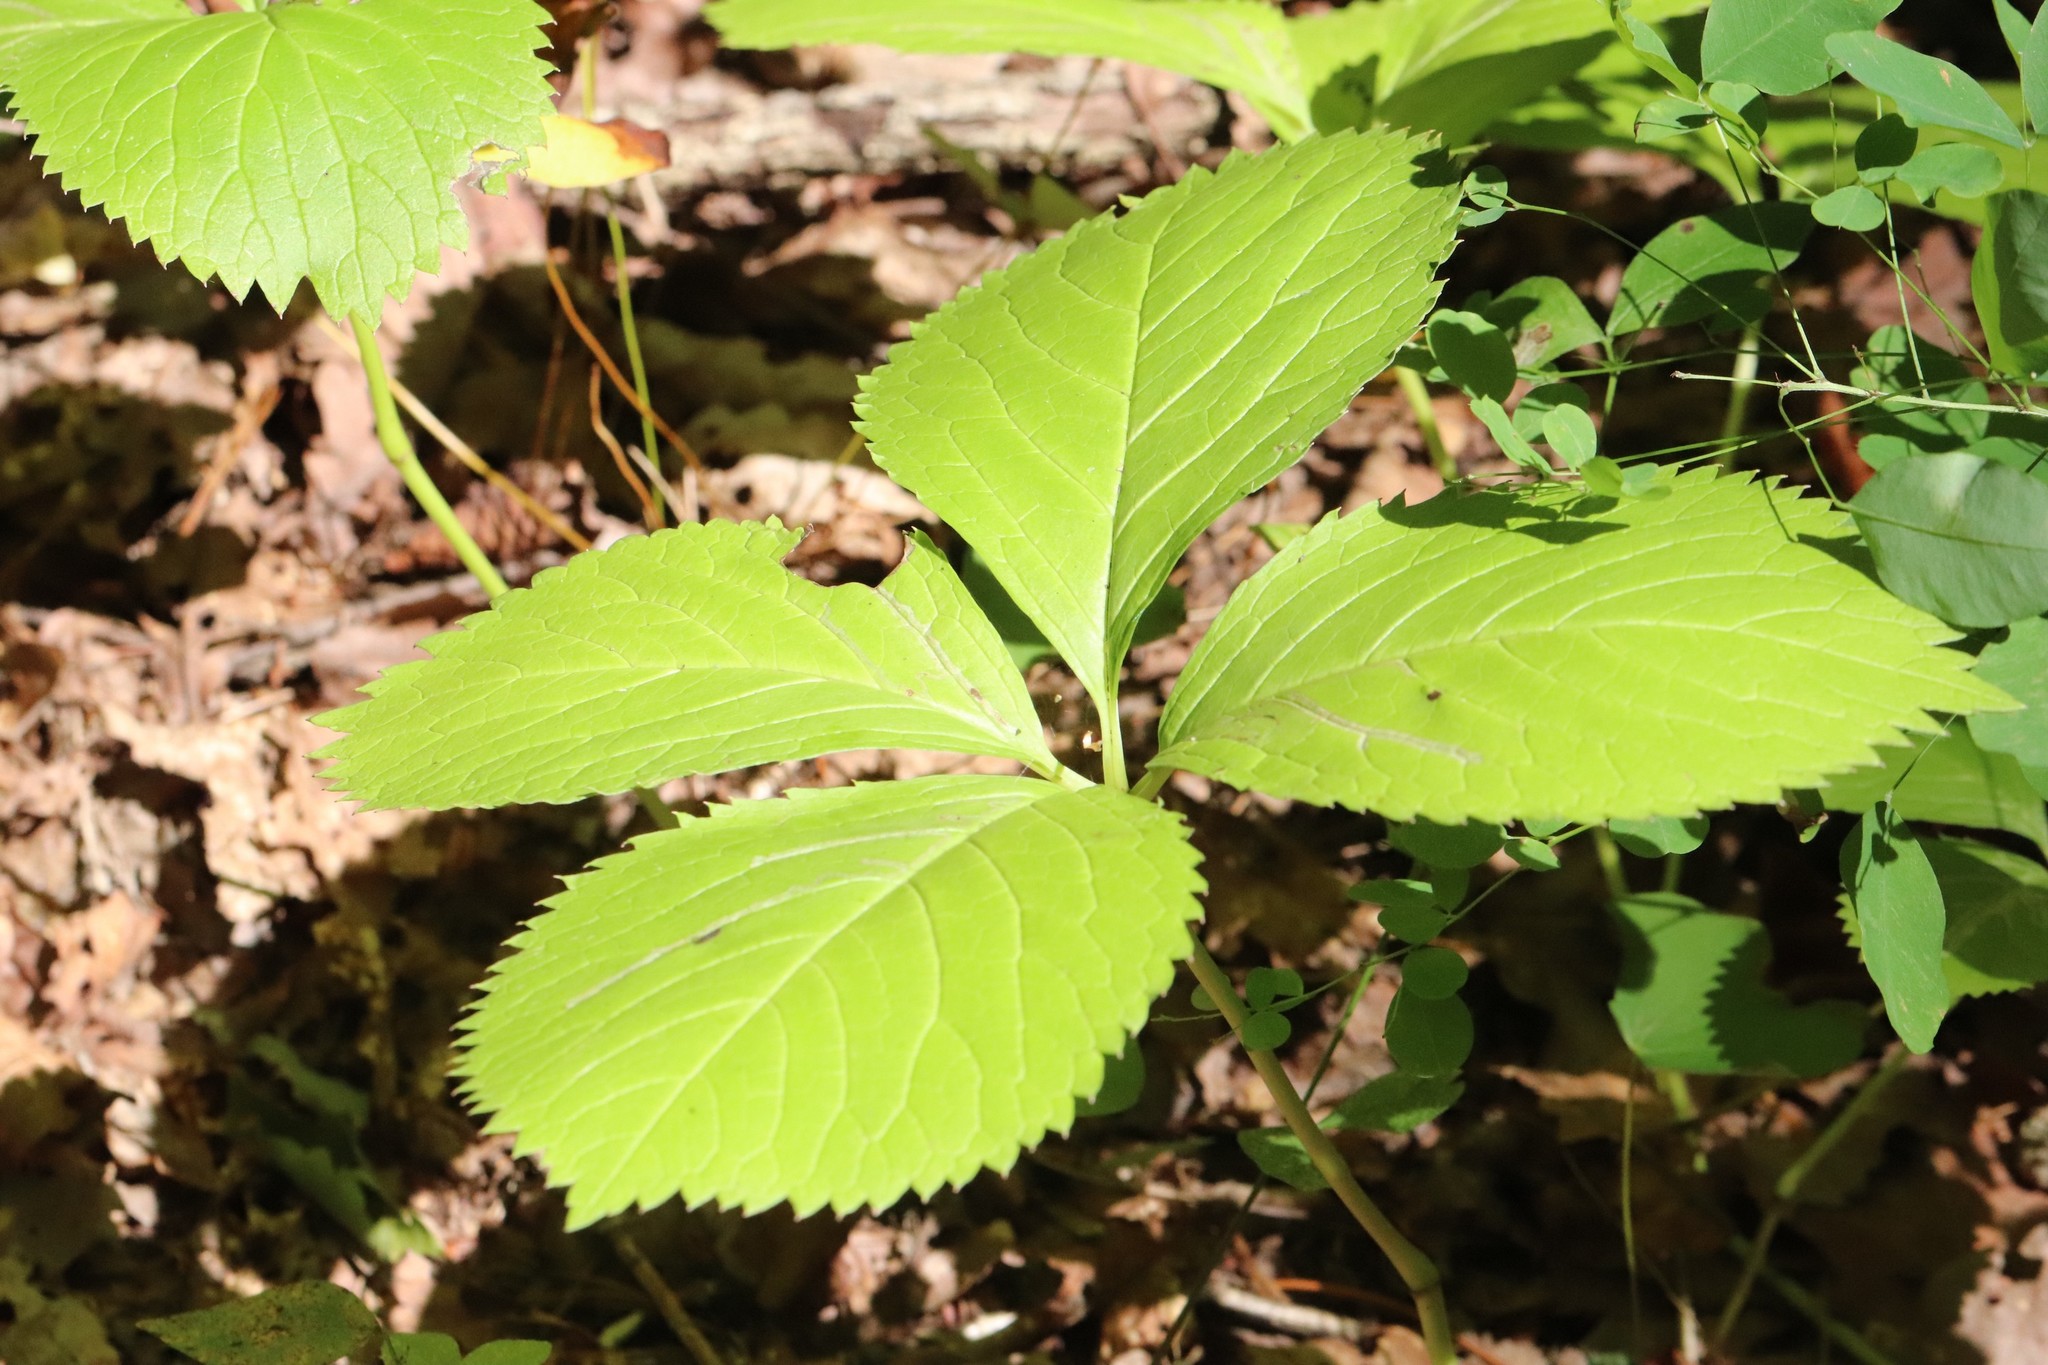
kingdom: Plantae
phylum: Tracheophyta
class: Magnoliopsida
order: Chloranthales
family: Chloranthaceae
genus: Chloranthus
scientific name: Chloranthus quadrifolius
